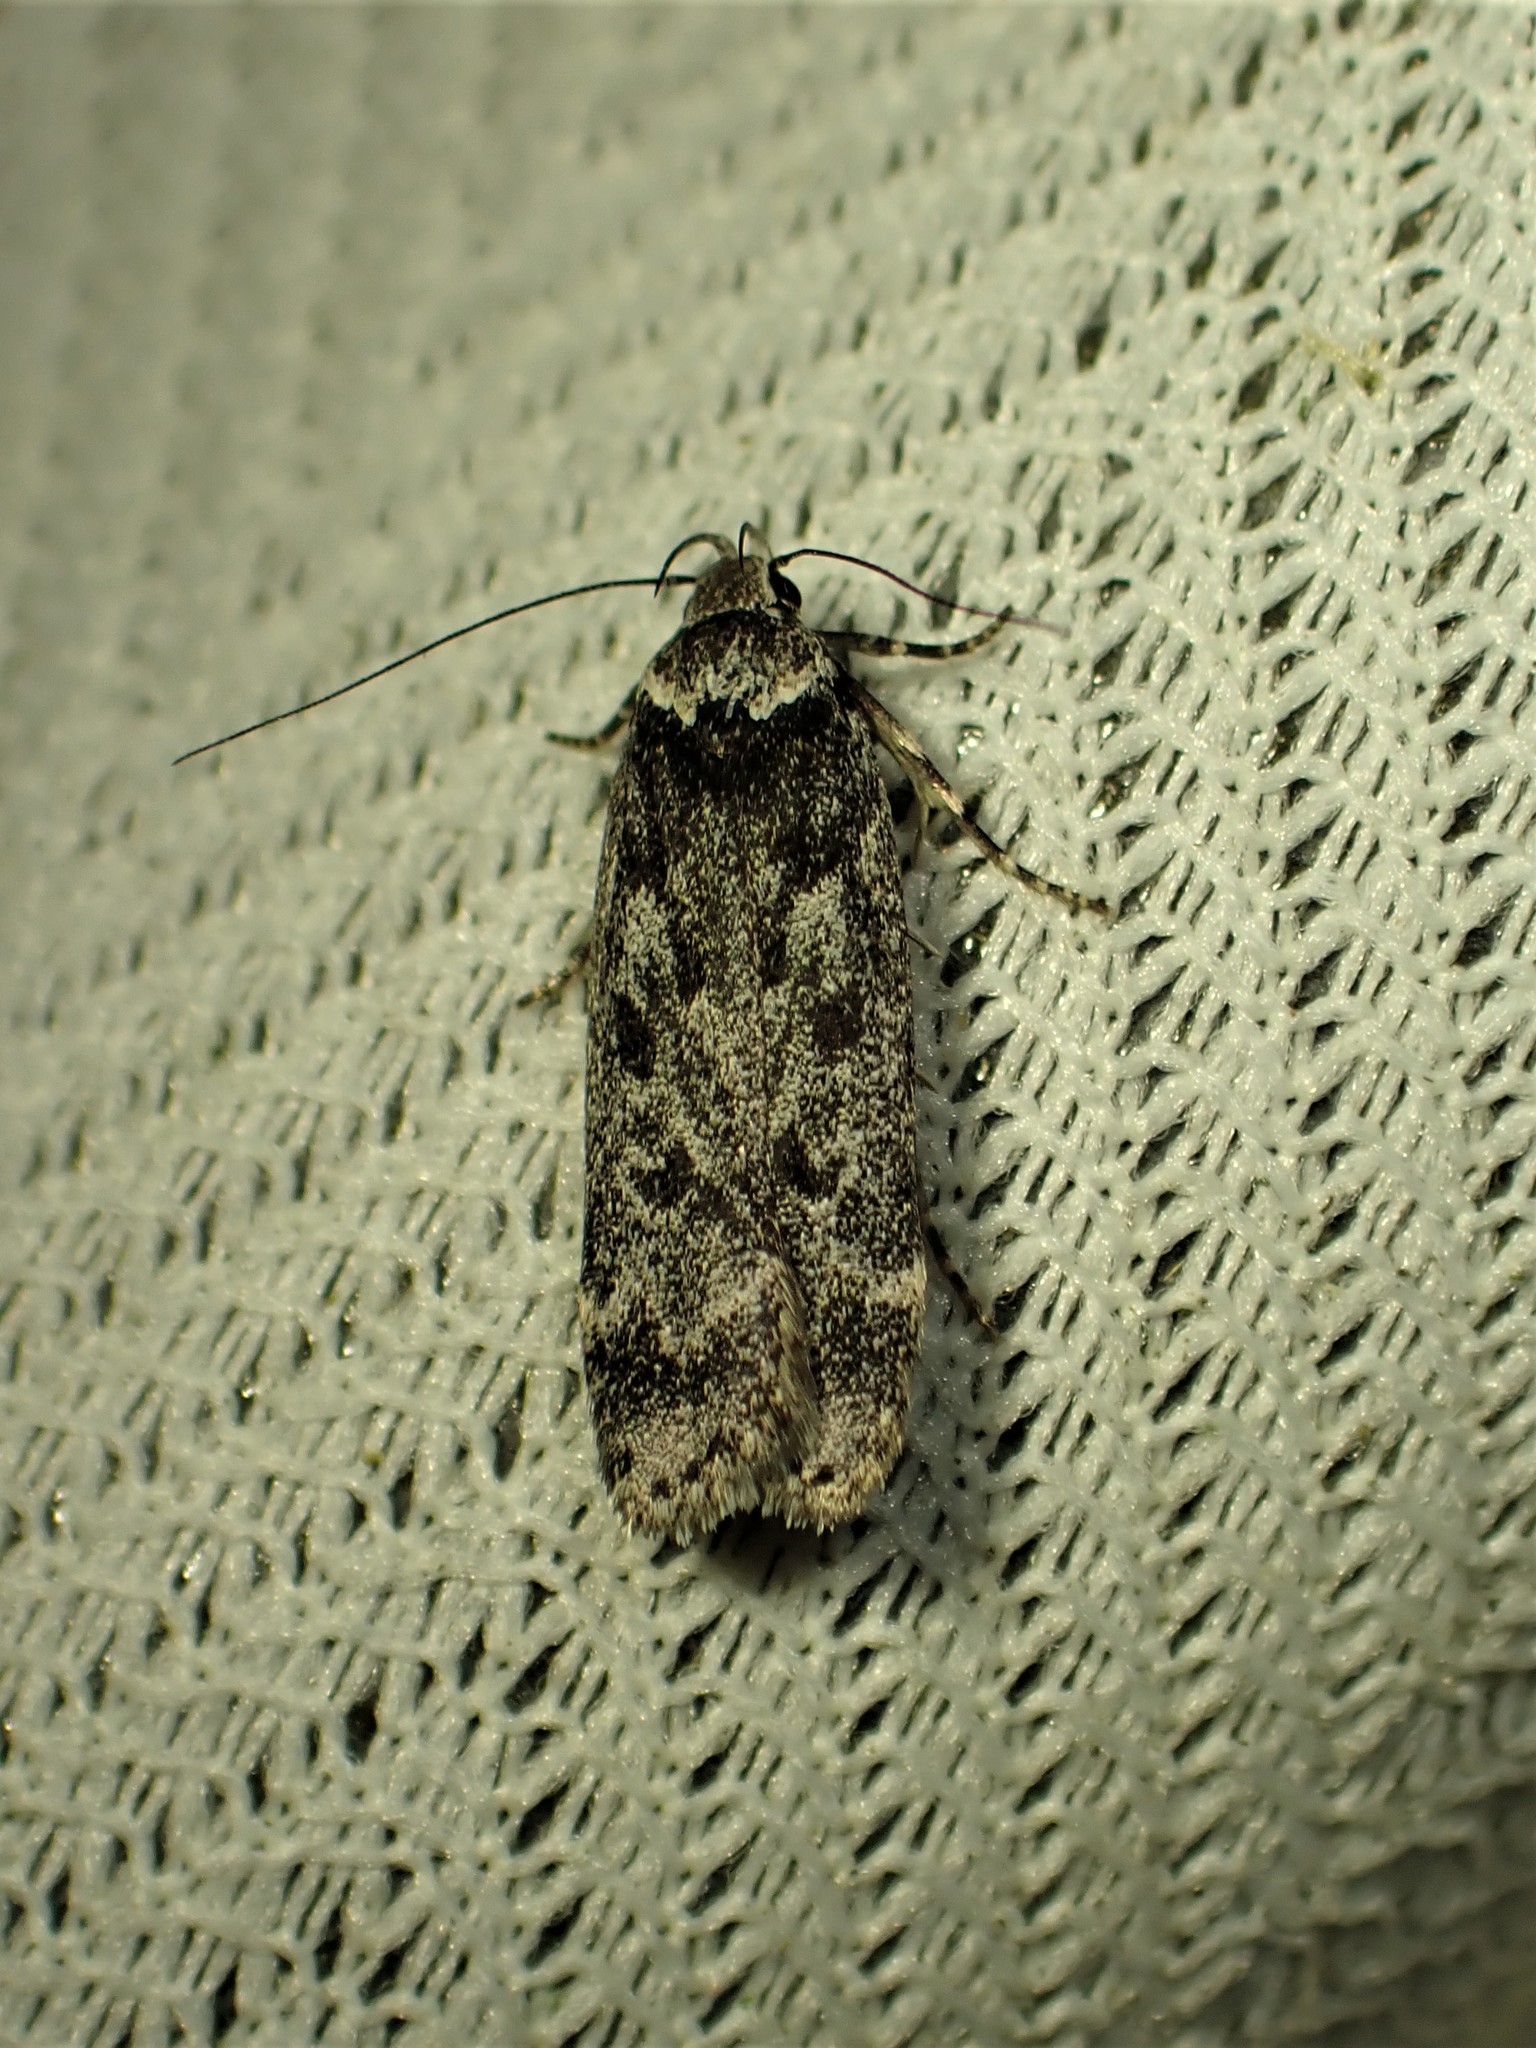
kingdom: Animalia
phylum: Arthropoda
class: Insecta
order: Lepidoptera
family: Gelechiidae
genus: Anacampsis
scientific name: Anacampsis niveopulvella
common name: Pale-headed aspen leafroller moth
